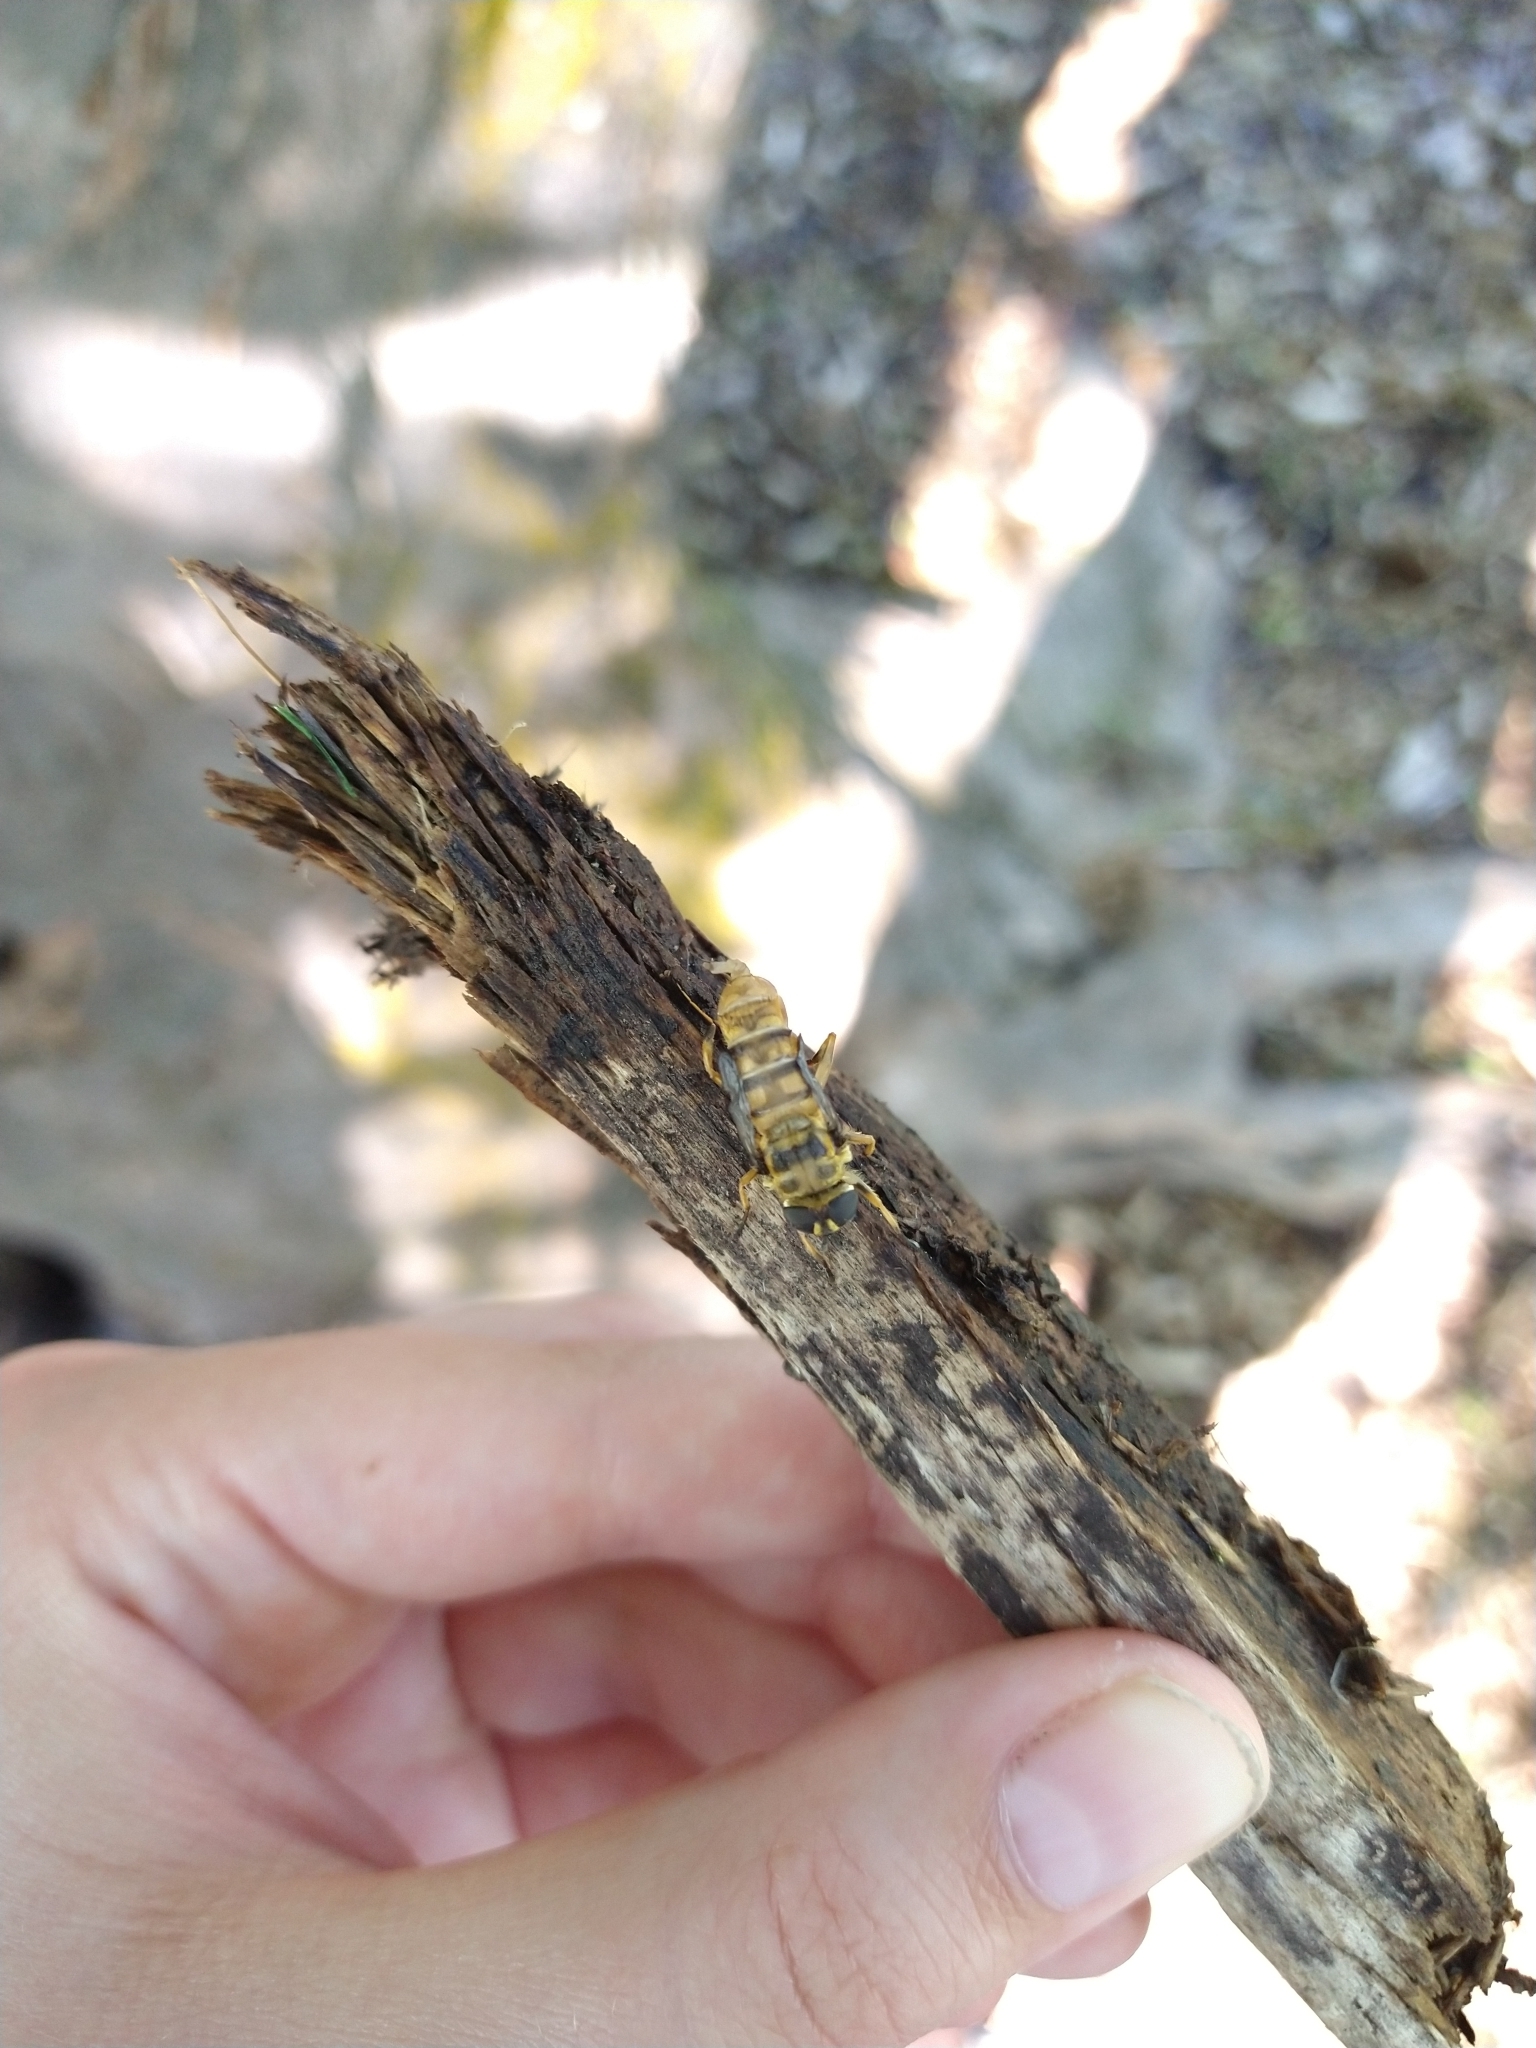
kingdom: Animalia
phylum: Arthropoda
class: Insecta
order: Diptera
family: Syrphidae
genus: Myathropa
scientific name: Myathropa florea
